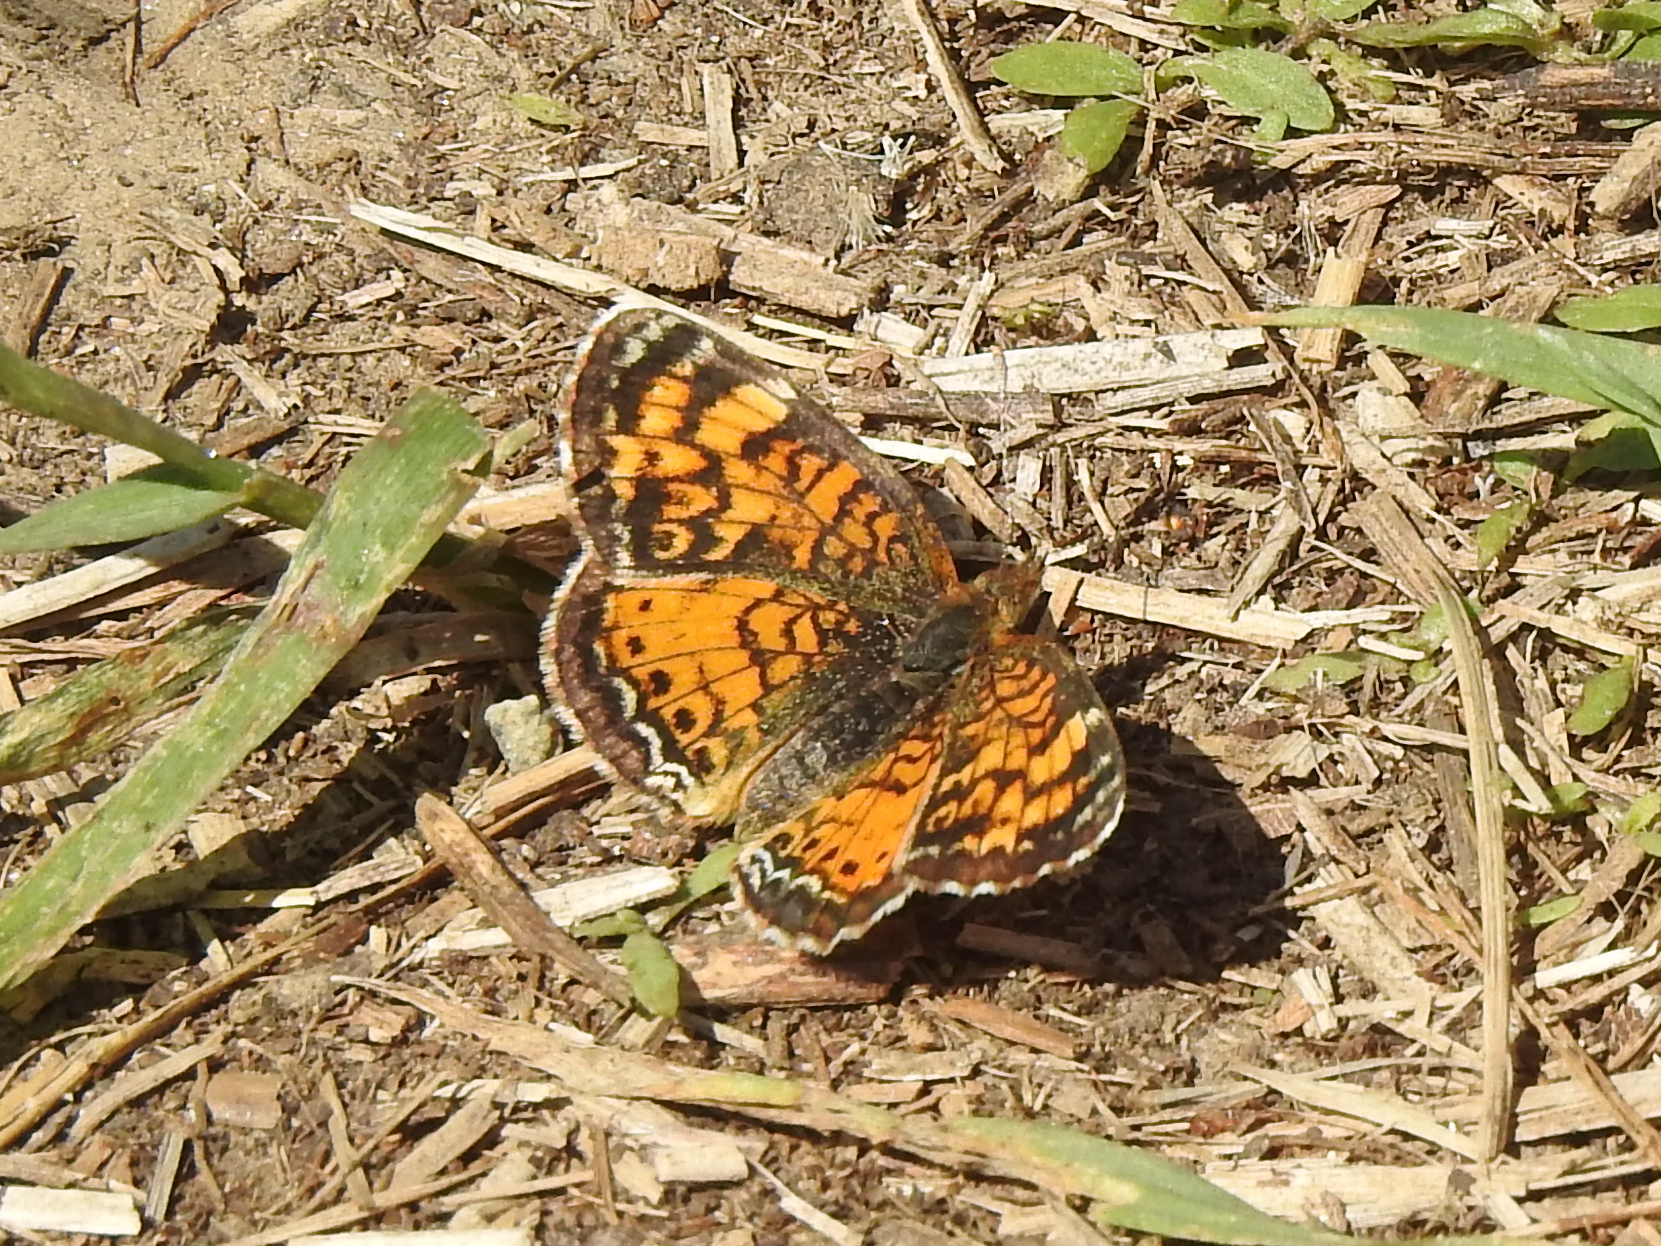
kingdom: Animalia
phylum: Arthropoda
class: Insecta
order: Lepidoptera
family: Nymphalidae
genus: Phyciodes
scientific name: Phyciodes tharos
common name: Pearl crescent
